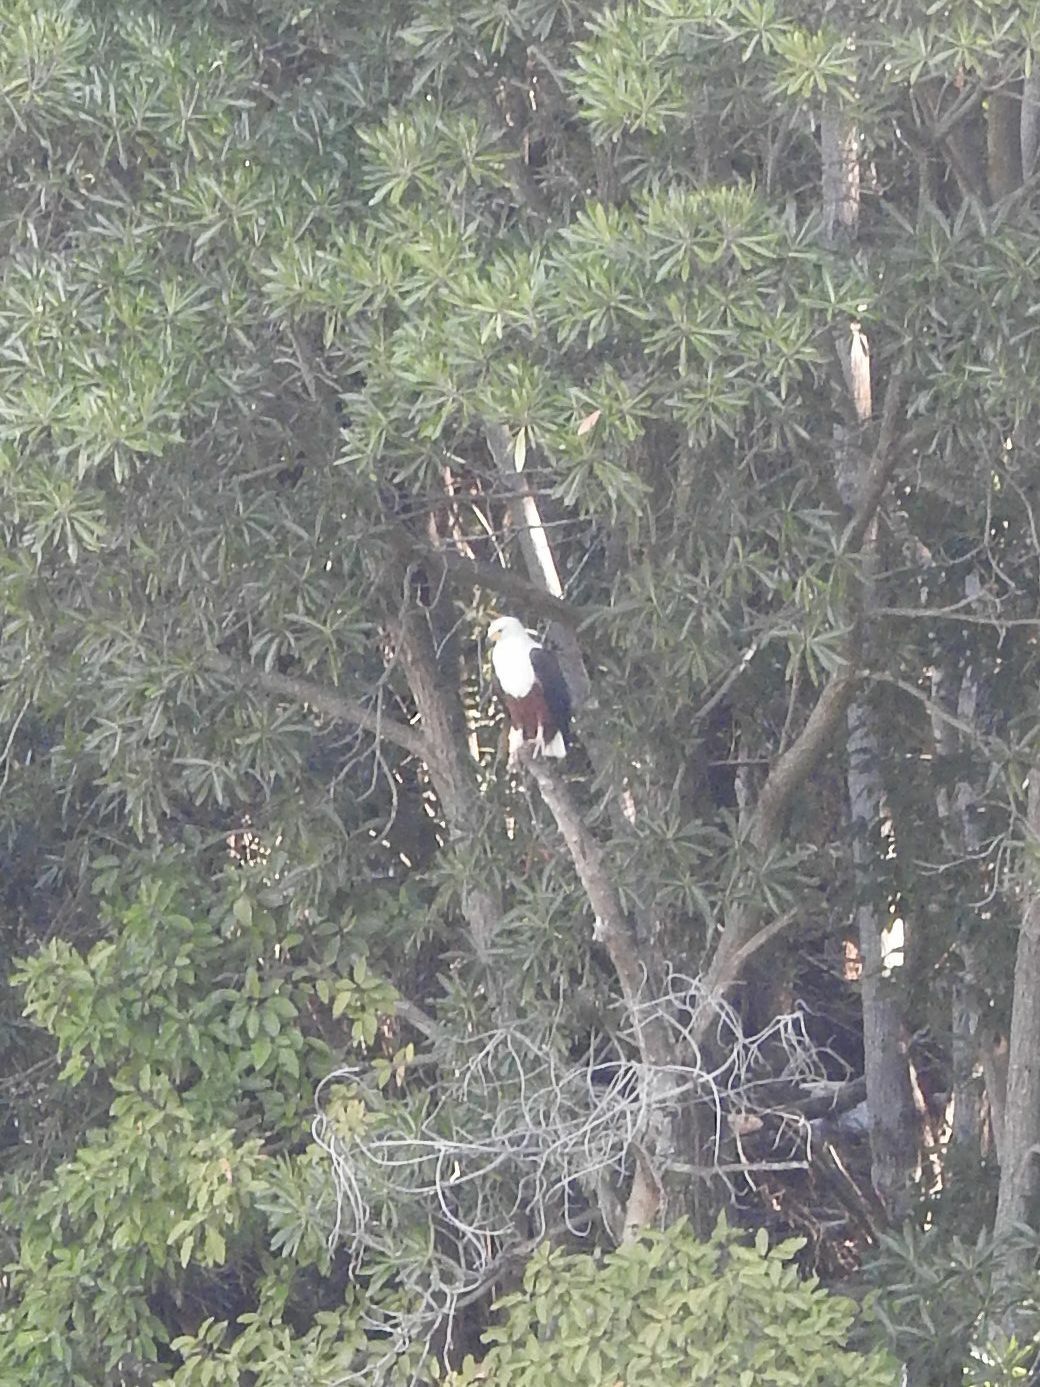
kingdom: Animalia
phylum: Chordata
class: Aves
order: Accipitriformes
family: Accipitridae
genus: Haliaeetus
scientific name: Haliaeetus vocifer
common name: African fish eagle
